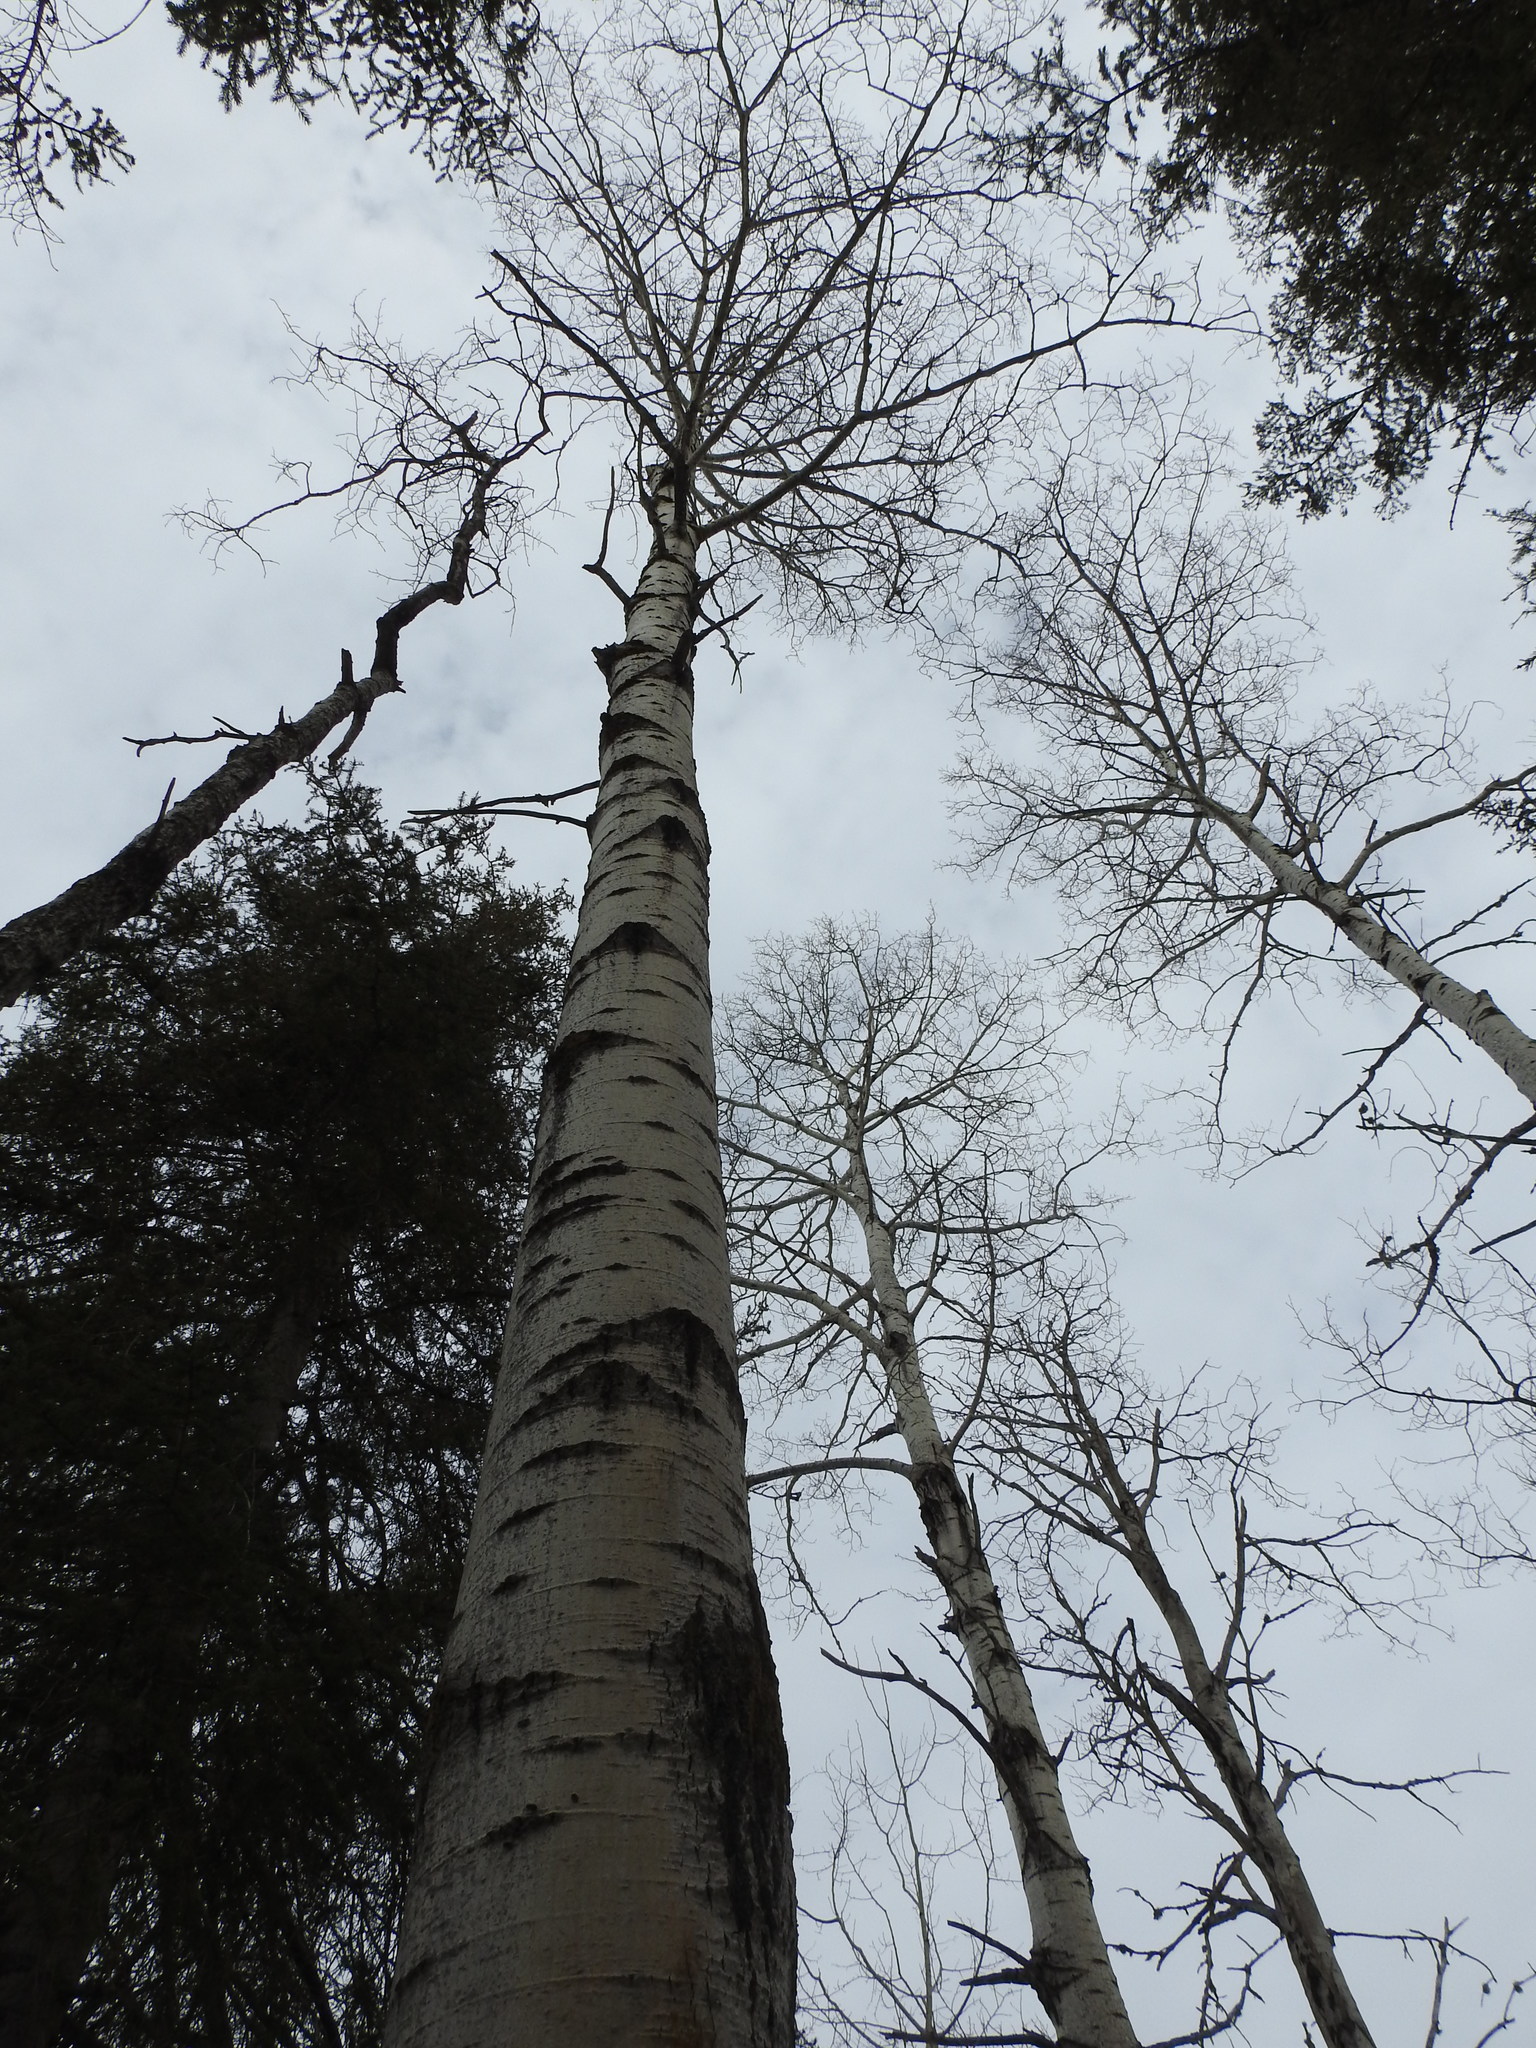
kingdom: Plantae
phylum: Tracheophyta
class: Magnoliopsida
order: Malpighiales
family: Salicaceae
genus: Populus
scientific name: Populus tremuloides
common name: Quaking aspen
